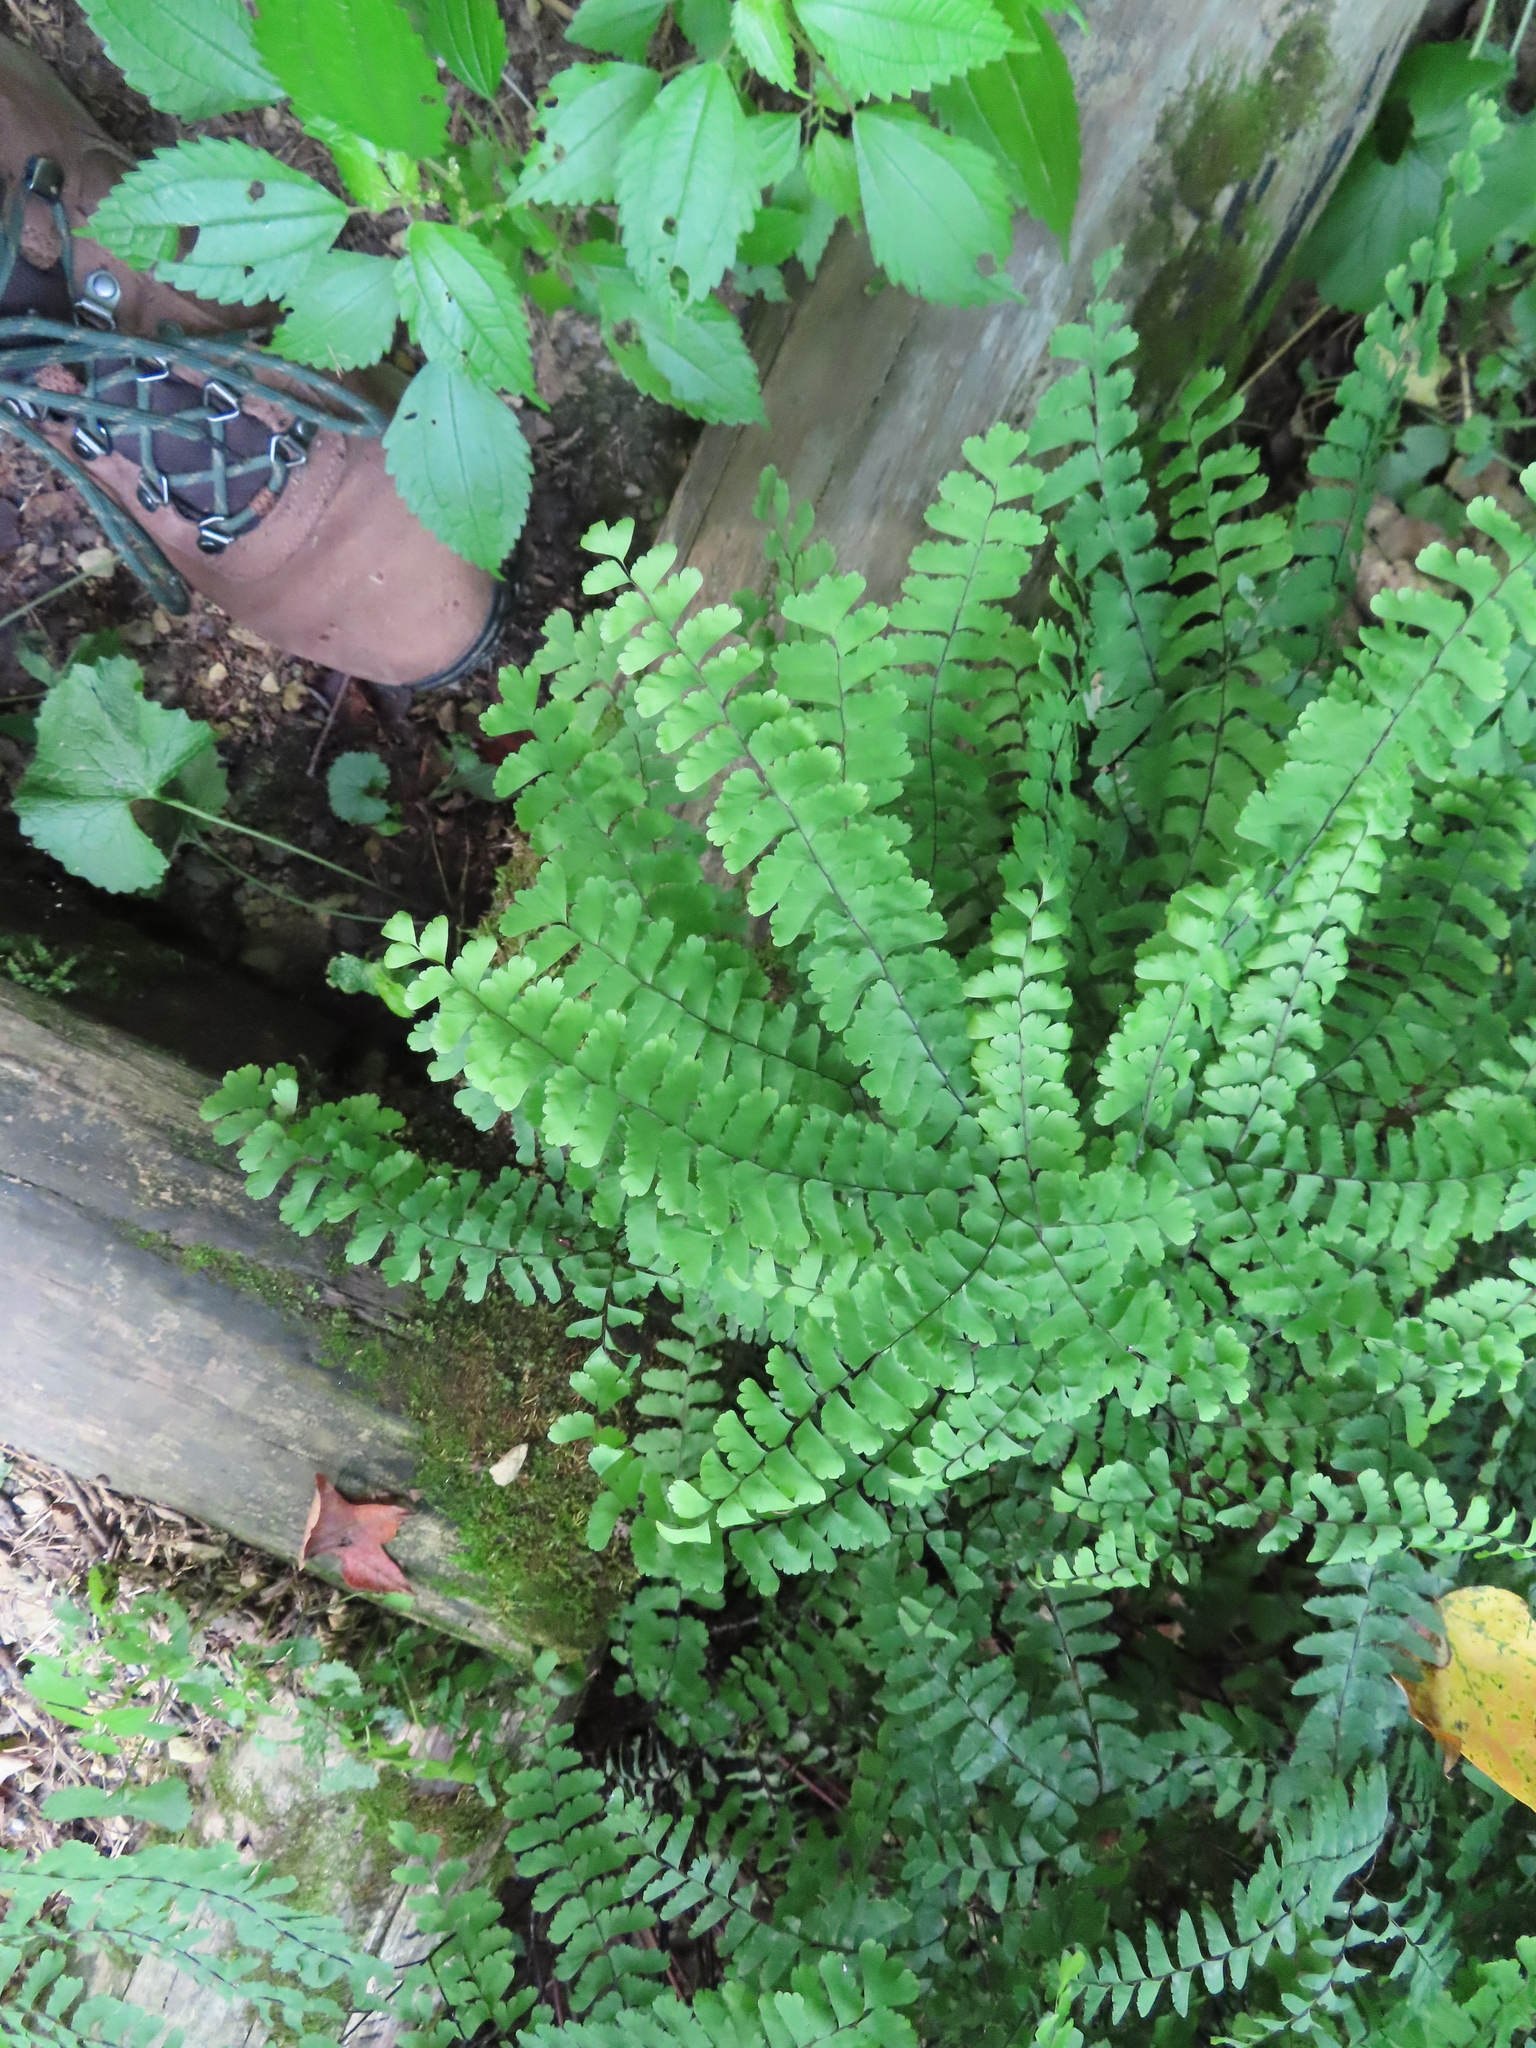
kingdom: Plantae
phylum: Tracheophyta
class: Polypodiopsida
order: Polypodiales
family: Pteridaceae
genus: Adiantum
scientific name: Adiantum pedatum
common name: Five-finger fern
